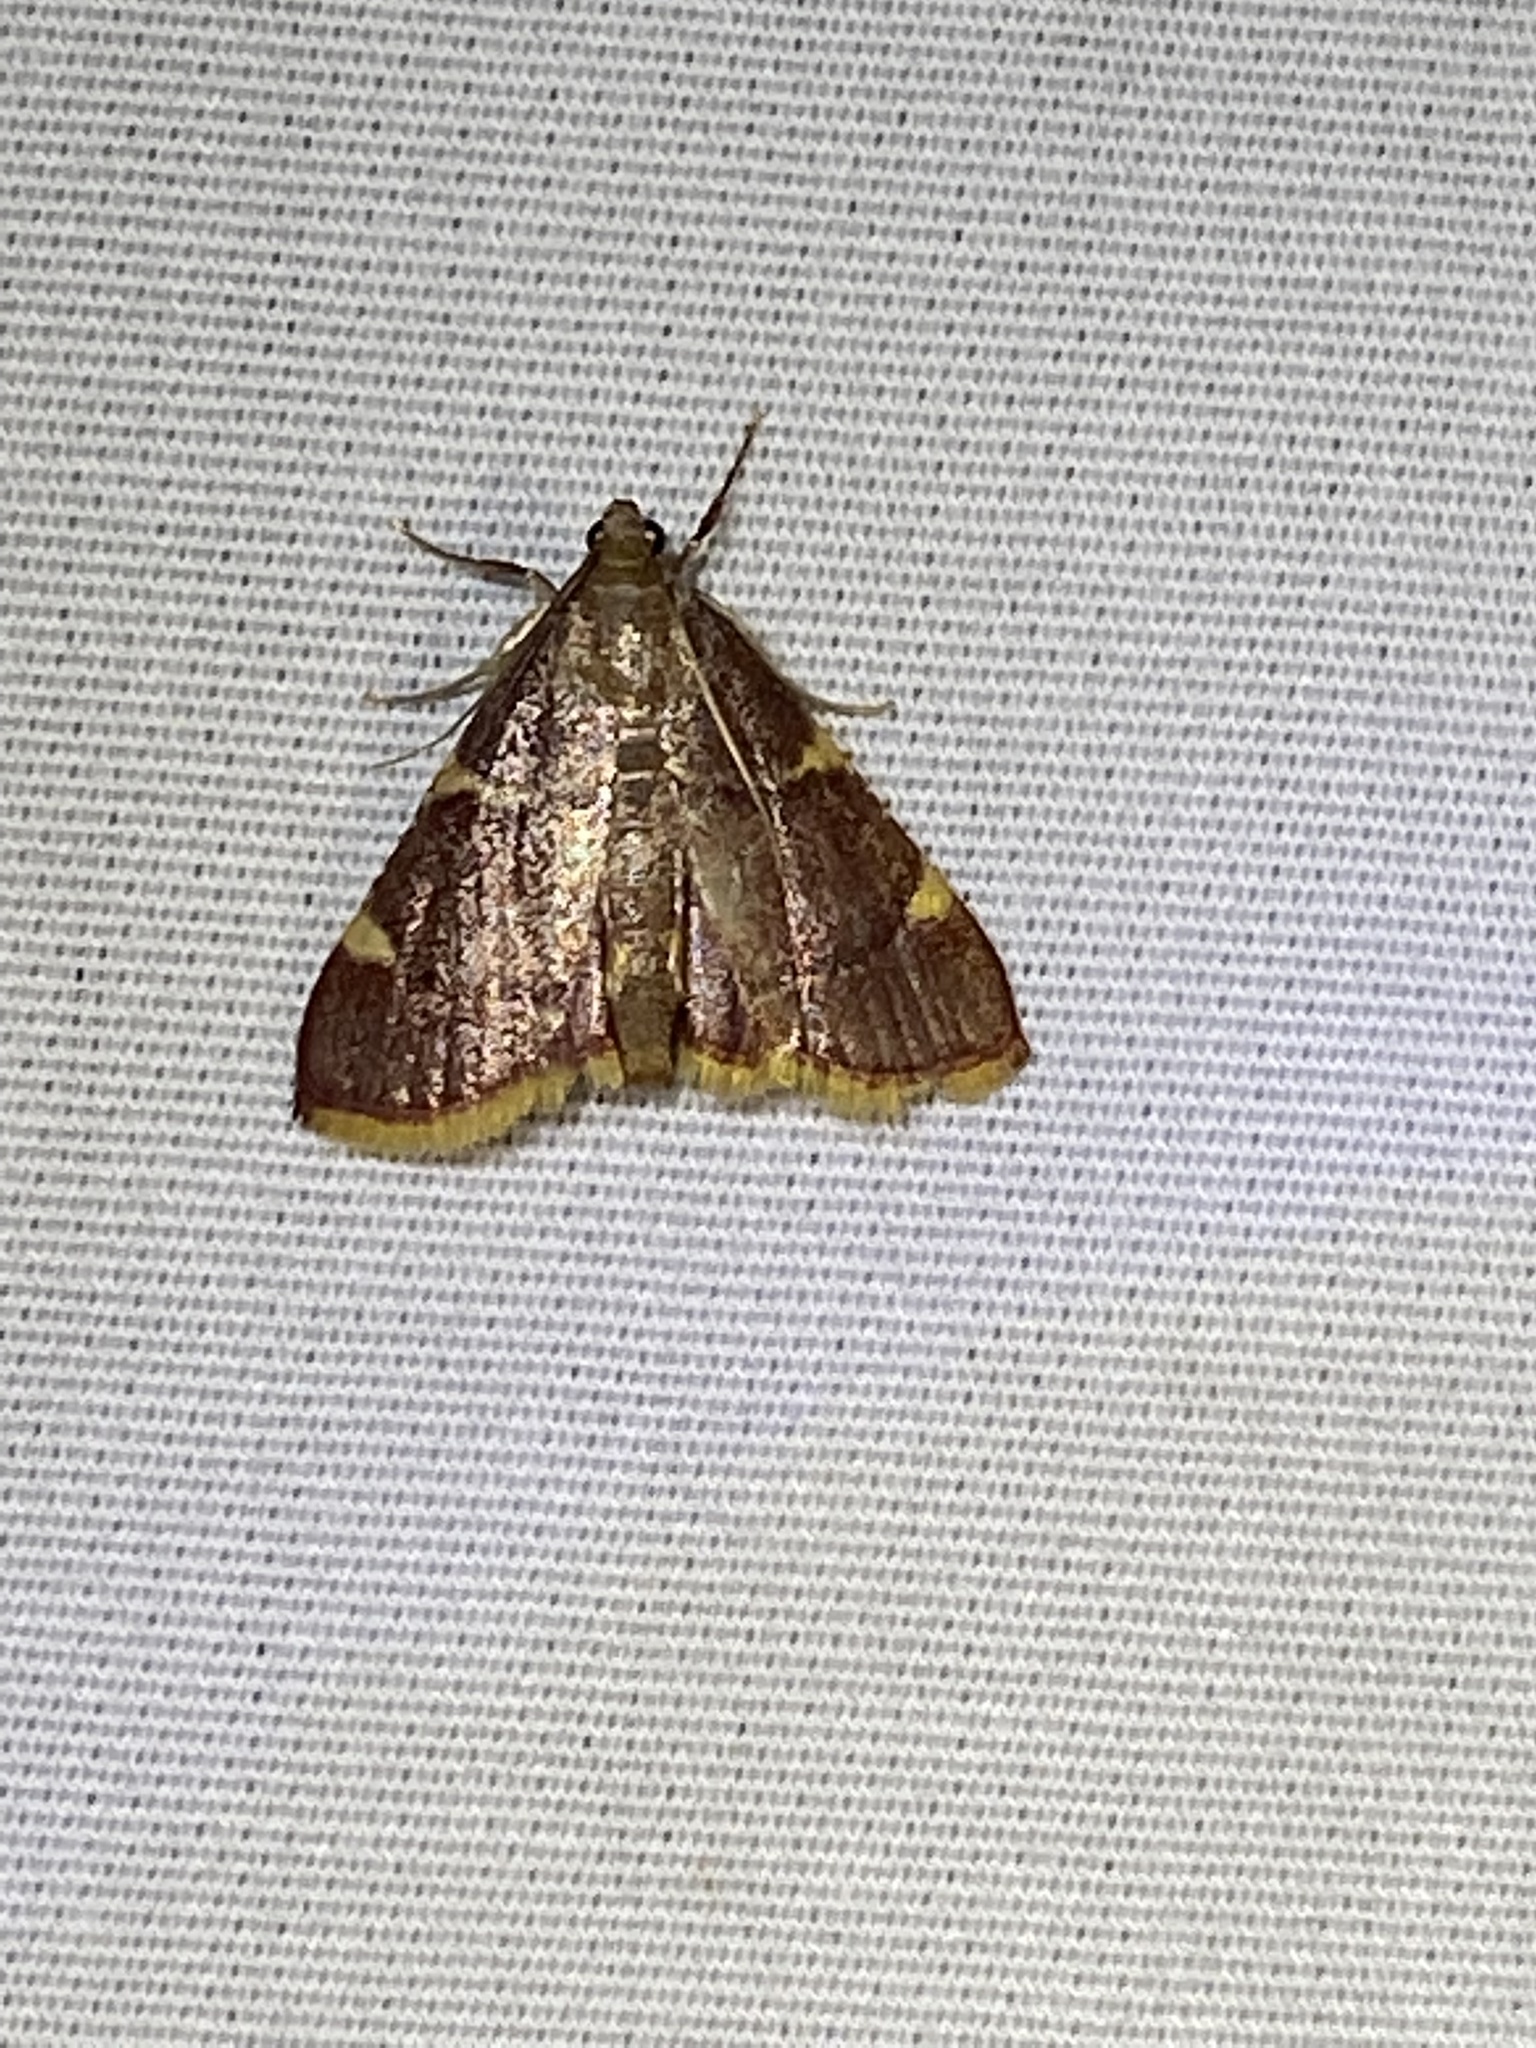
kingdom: Animalia
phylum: Arthropoda
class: Insecta
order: Lepidoptera
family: Pyralidae
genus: Hypsopygia
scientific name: Hypsopygia olinalis
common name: Yellow-fringed dolichomia moth
